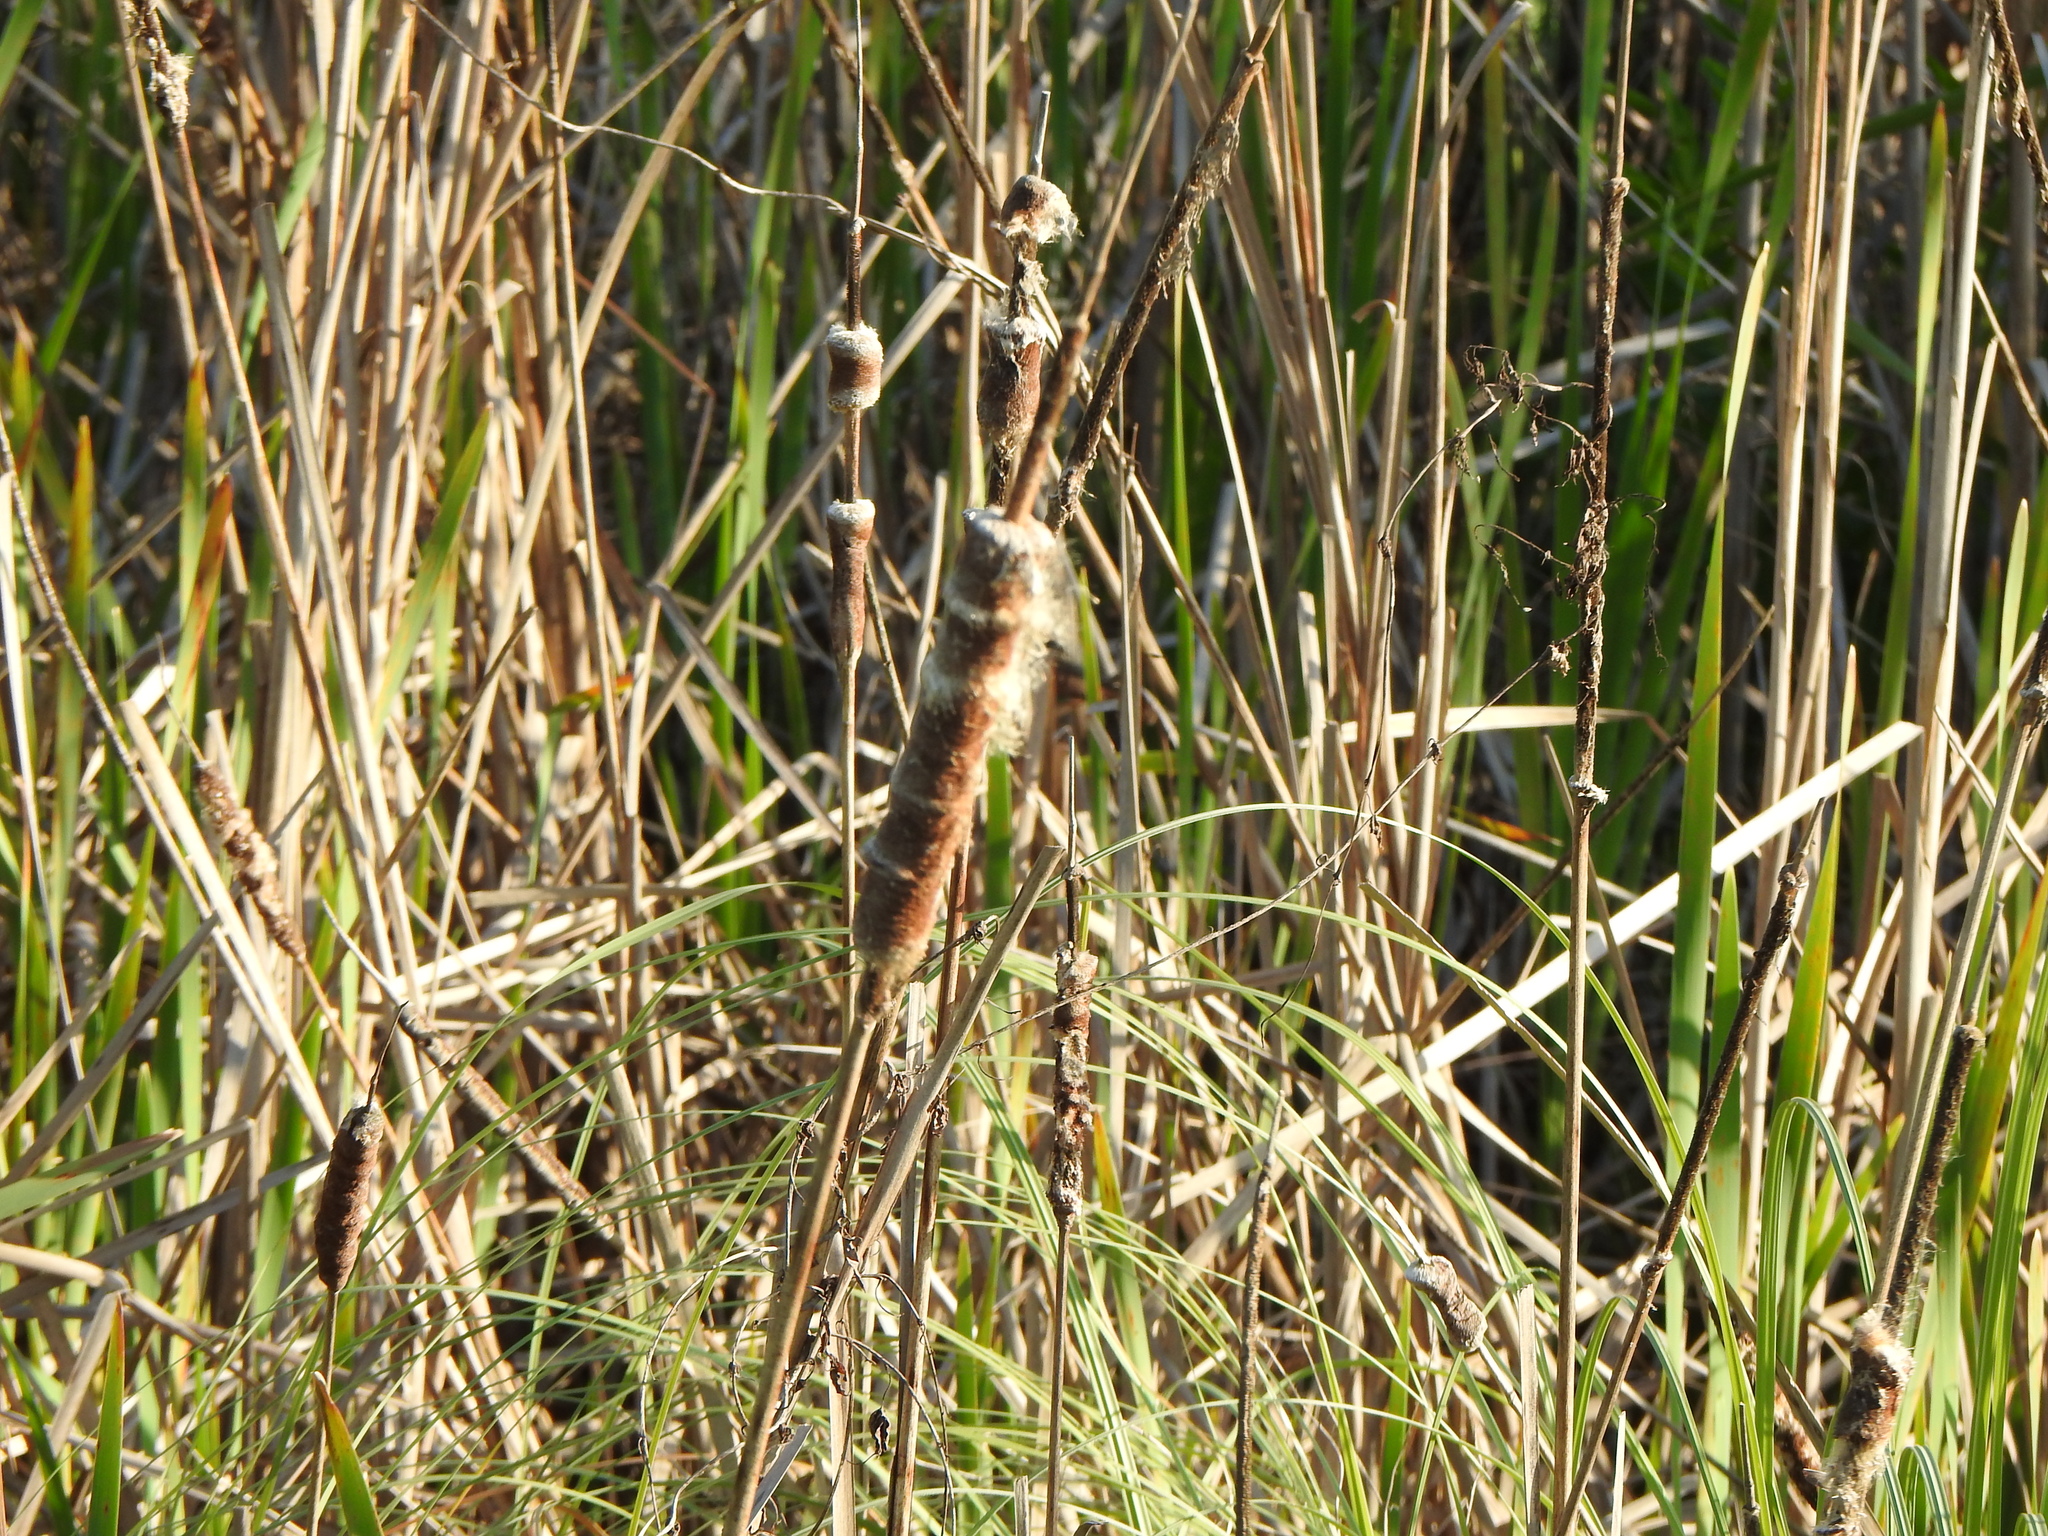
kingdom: Plantae
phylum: Tracheophyta
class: Liliopsida
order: Poales
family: Typhaceae
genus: Typha
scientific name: Typha latifolia
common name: Broadleaf cattail
